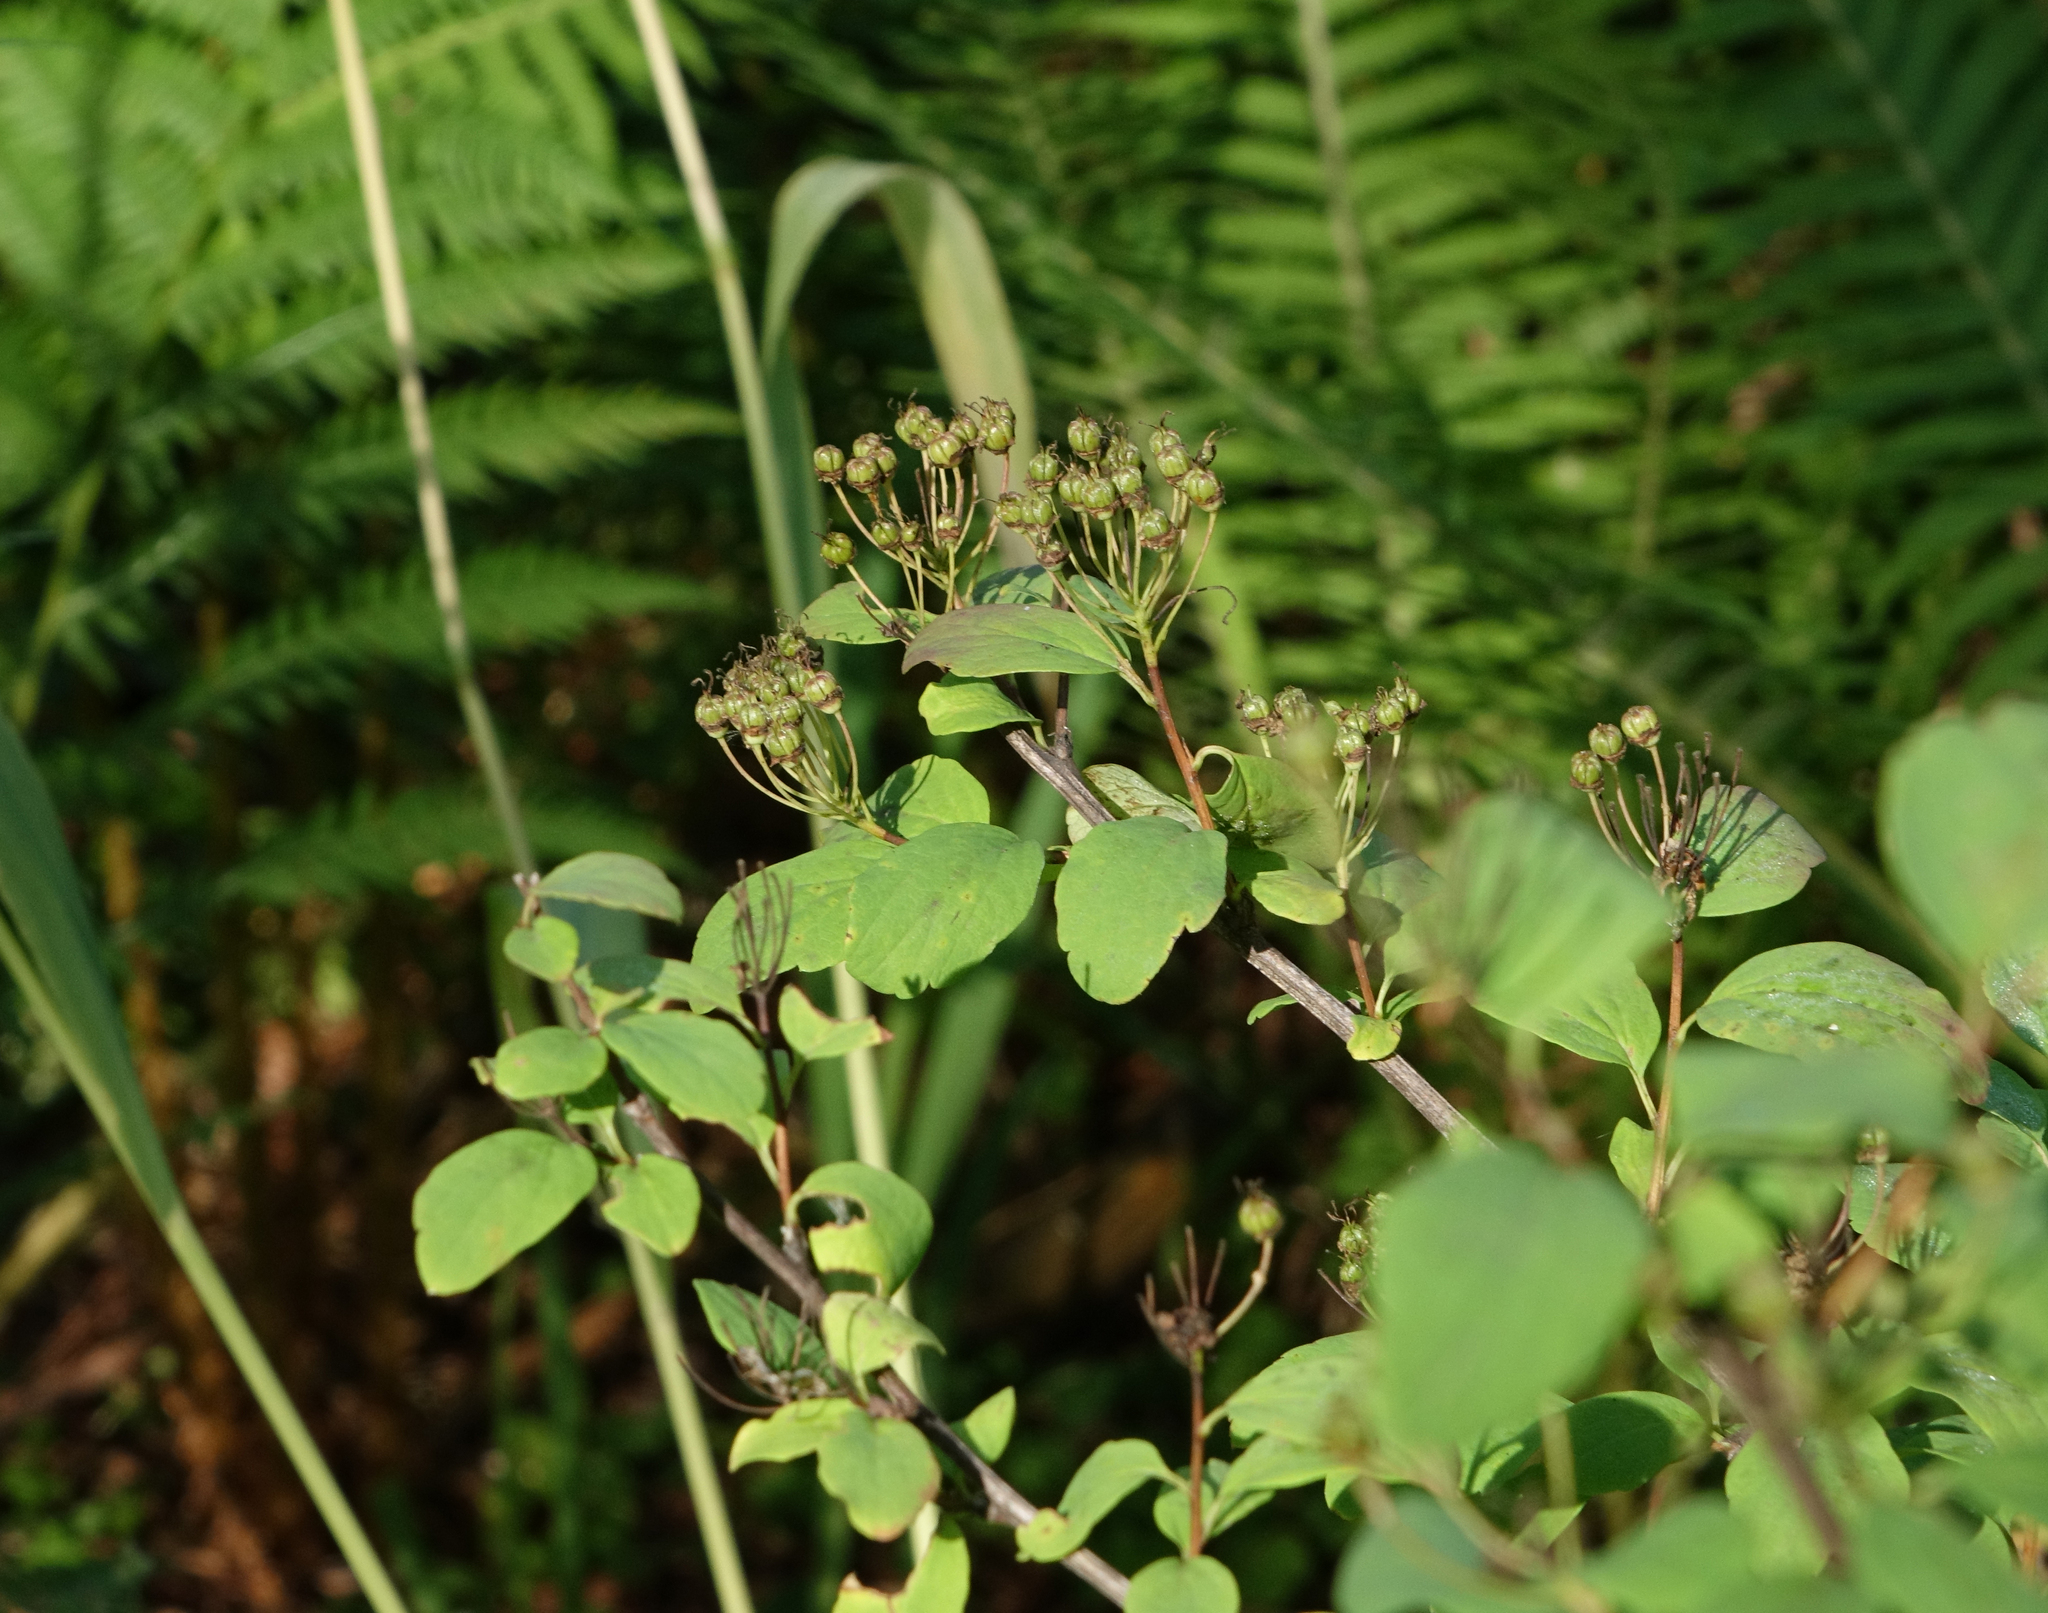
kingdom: Plantae
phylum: Tracheophyta
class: Magnoliopsida
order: Rosales
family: Rosaceae
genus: Spiraea
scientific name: Spiraea media
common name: Russian spiraea
